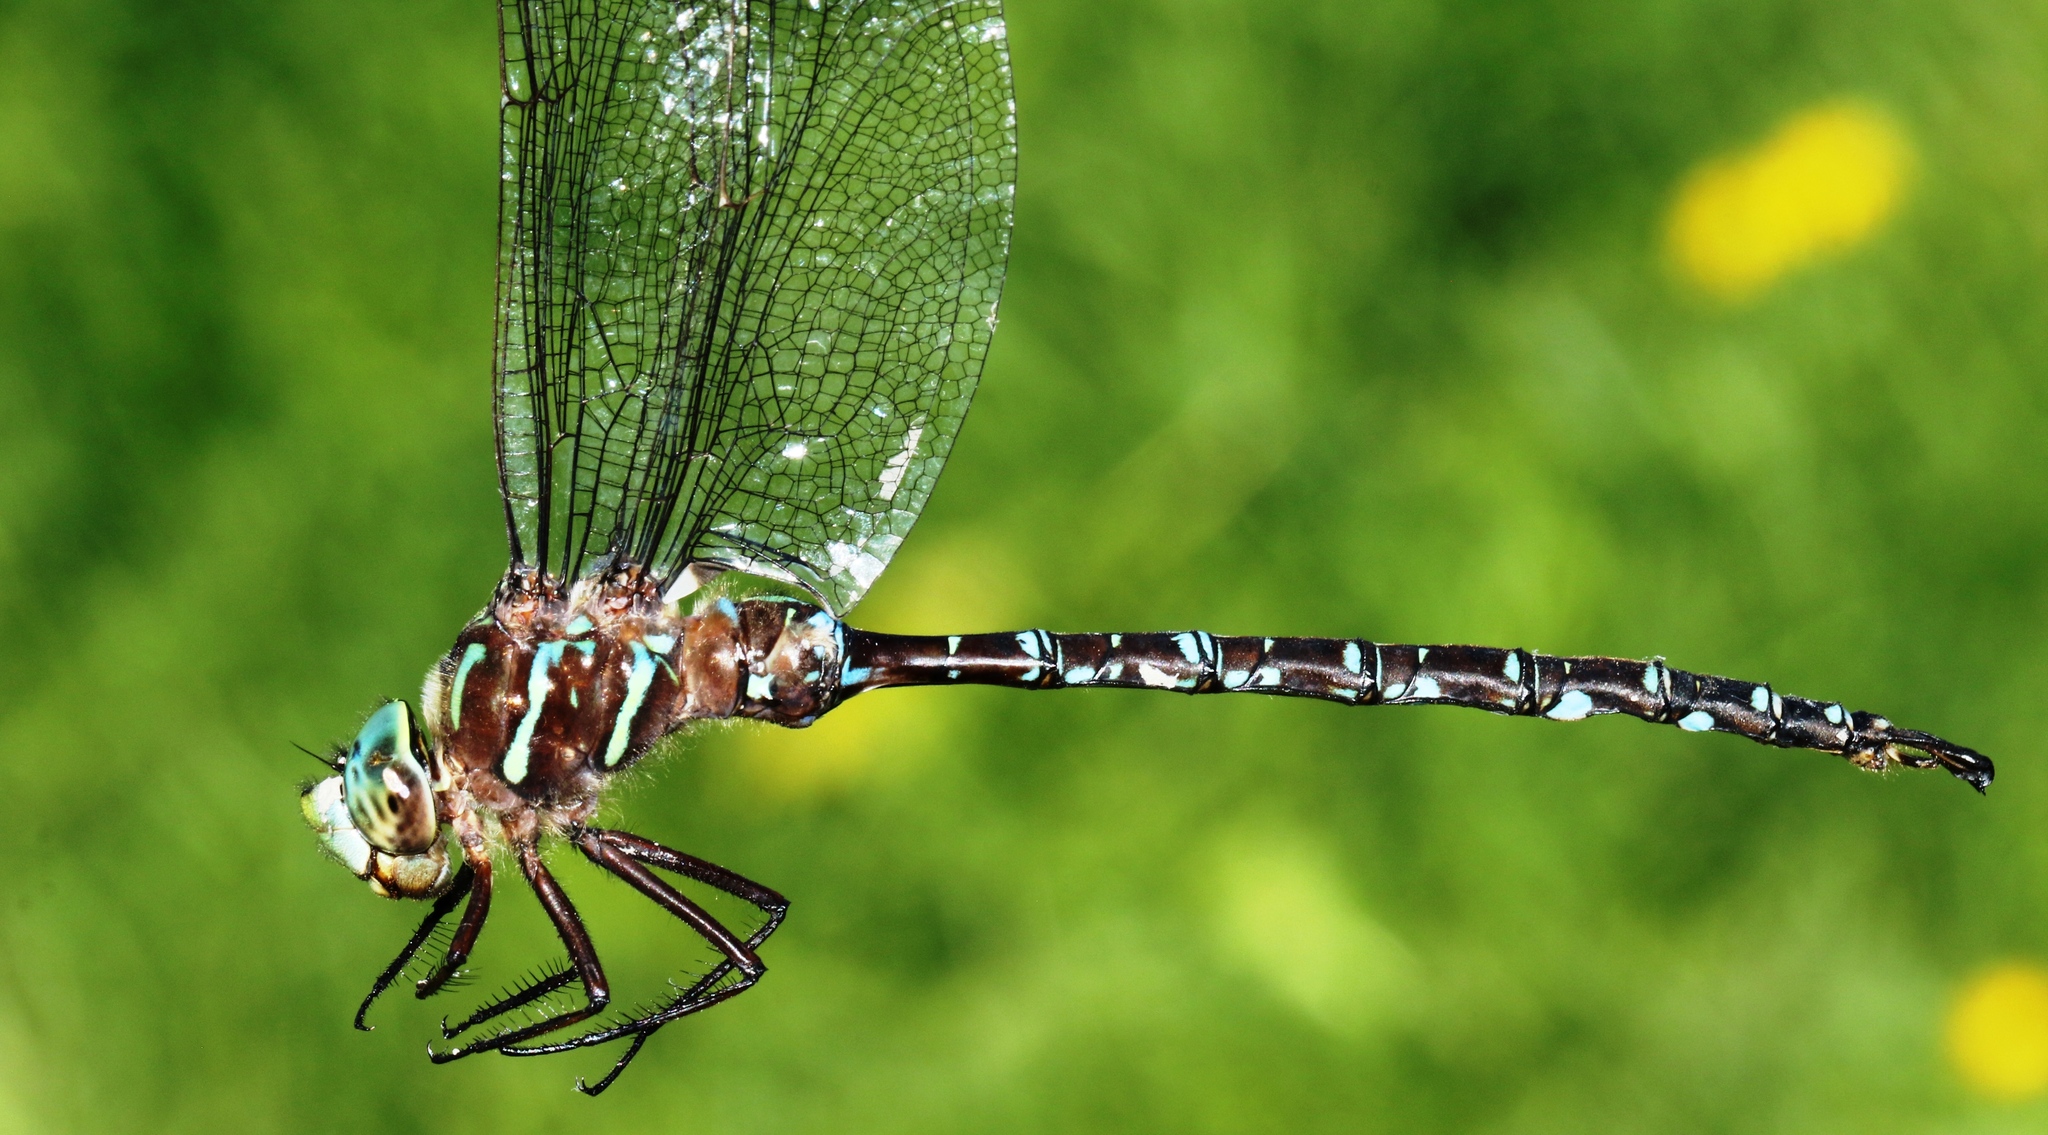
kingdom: Animalia
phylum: Arthropoda
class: Insecta
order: Odonata
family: Aeshnidae
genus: Aeshna
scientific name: Aeshna umbrosa
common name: Shadow darner
